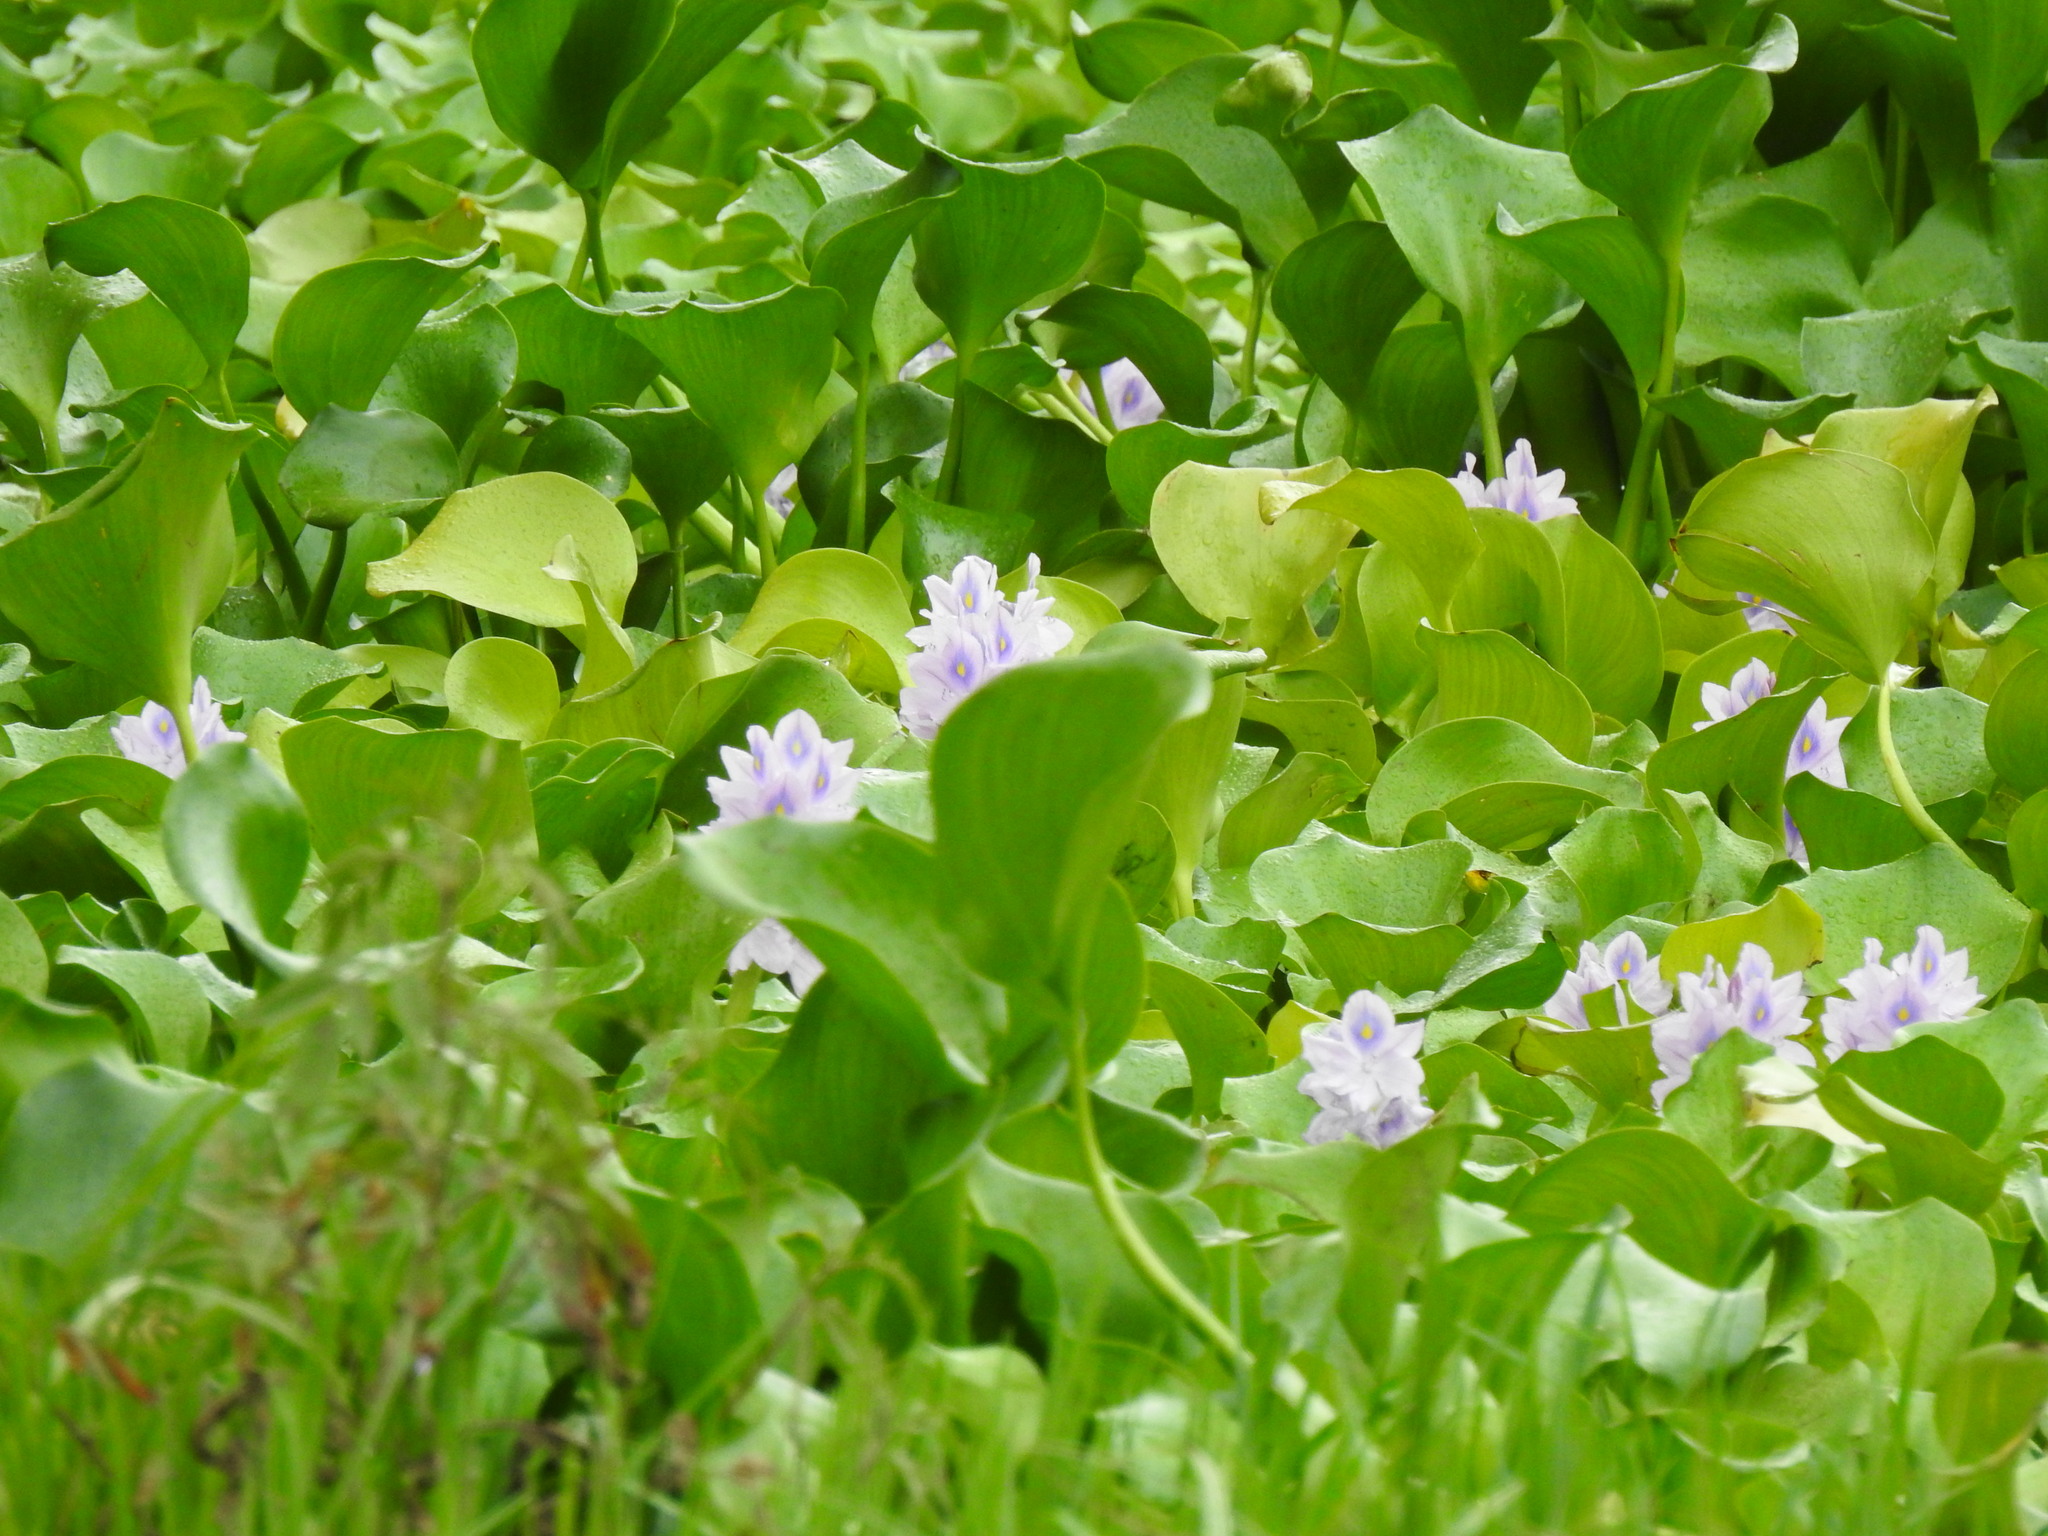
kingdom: Plantae
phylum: Tracheophyta
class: Liliopsida
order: Commelinales
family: Pontederiaceae
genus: Pontederia
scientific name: Pontederia crassipes
